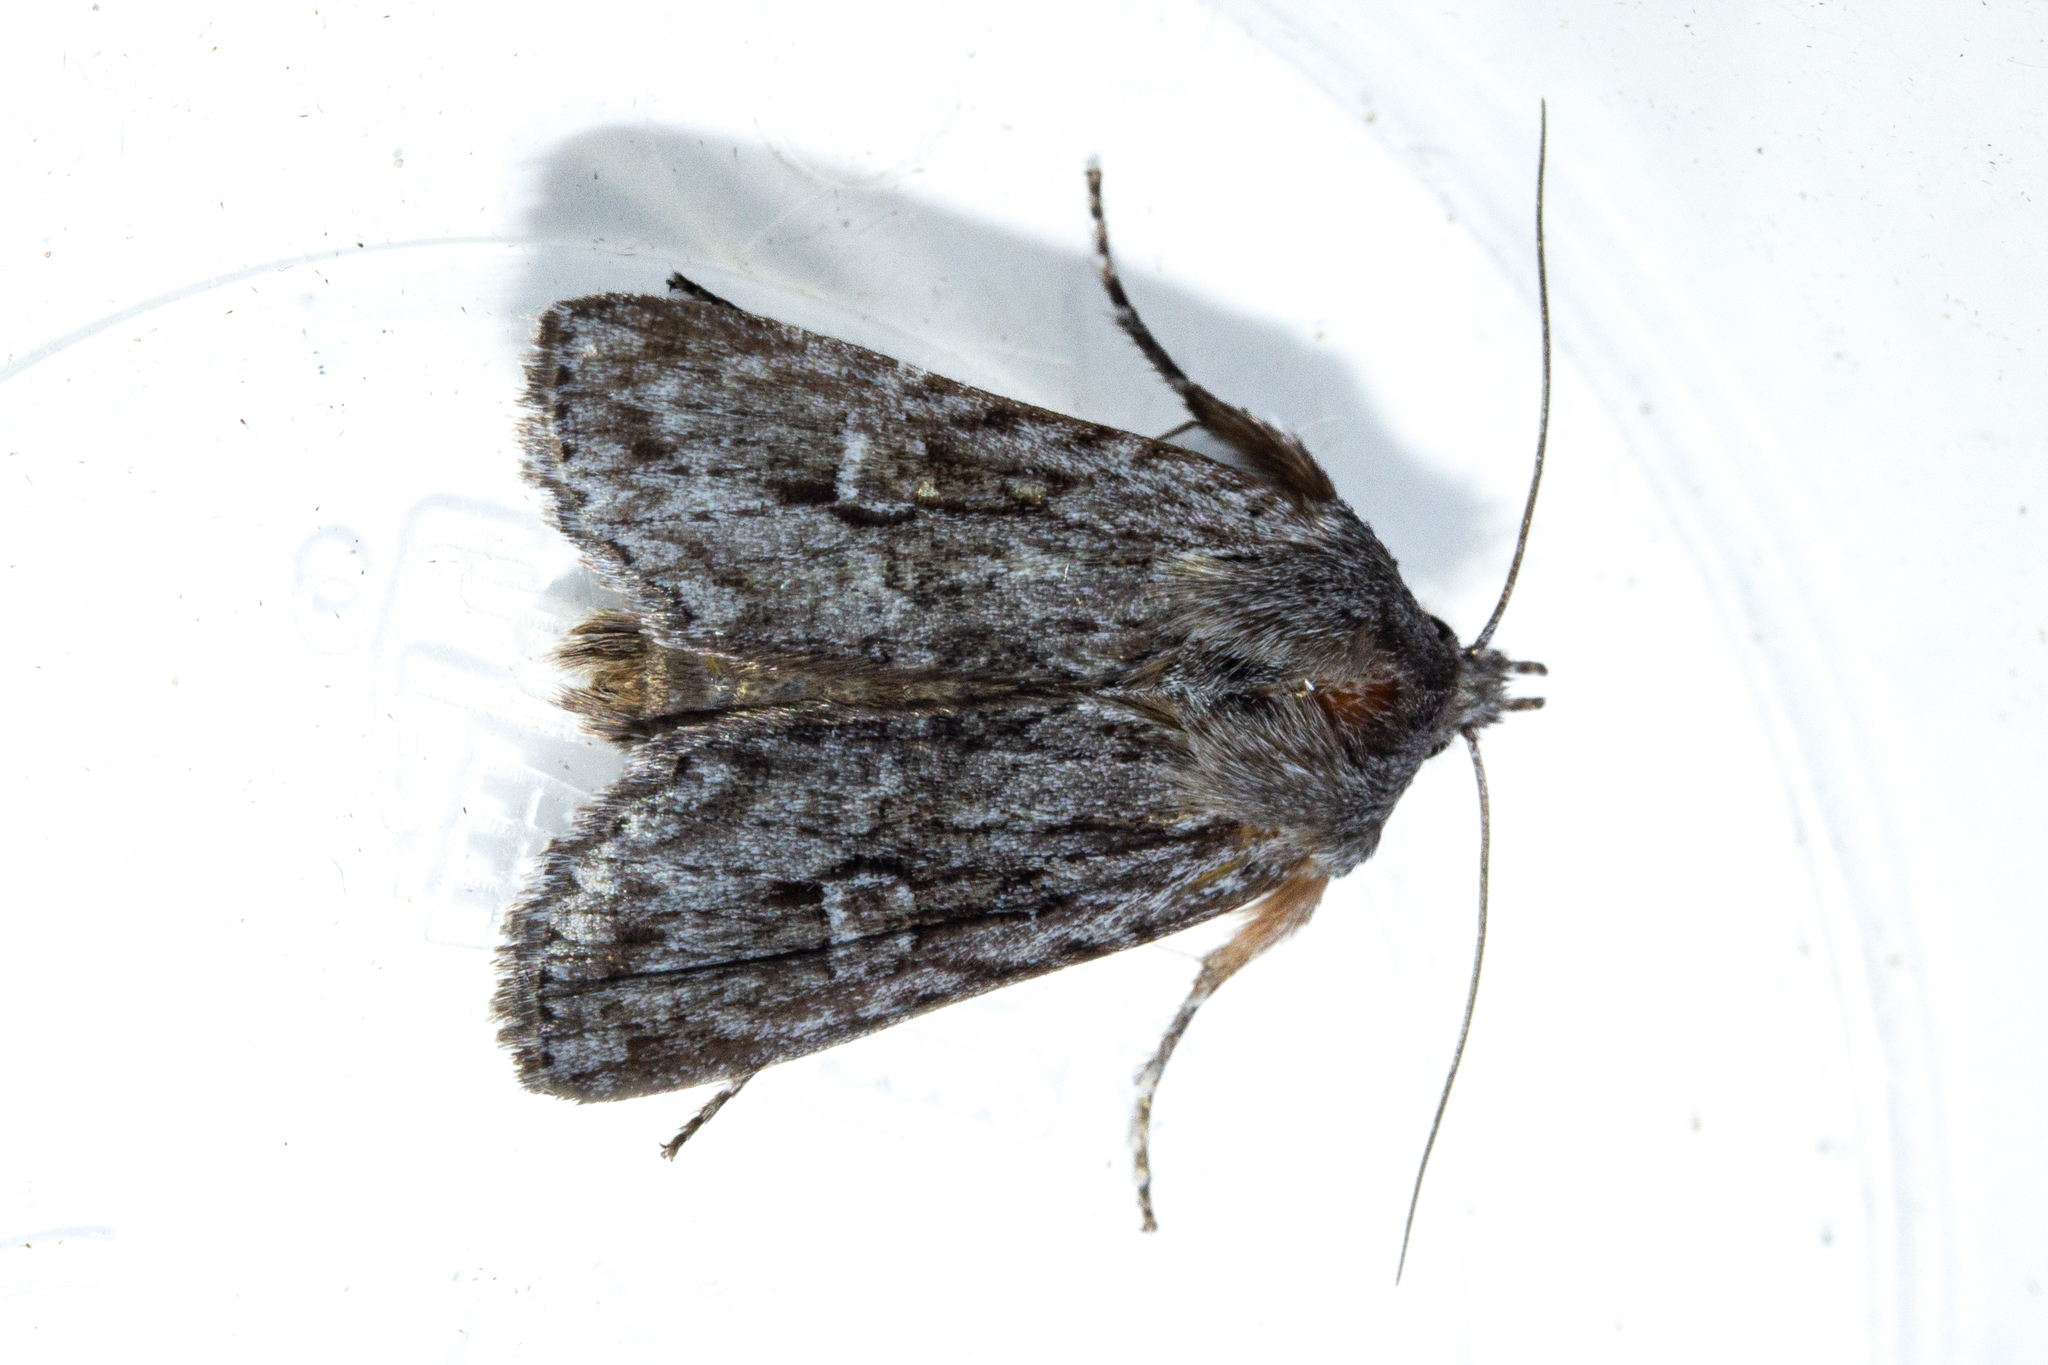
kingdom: Animalia
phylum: Arthropoda
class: Insecta
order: Lepidoptera
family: Noctuidae
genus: Physetica
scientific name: Physetica sequens
